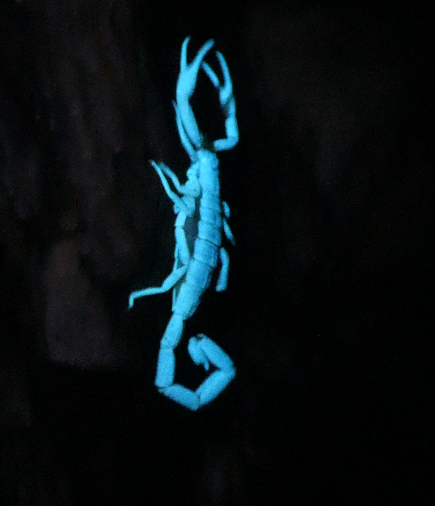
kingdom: Animalia
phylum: Arthropoda
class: Arachnida
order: Scorpiones
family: Buthidae
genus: Uroplectes
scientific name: Uroplectes vittatus
